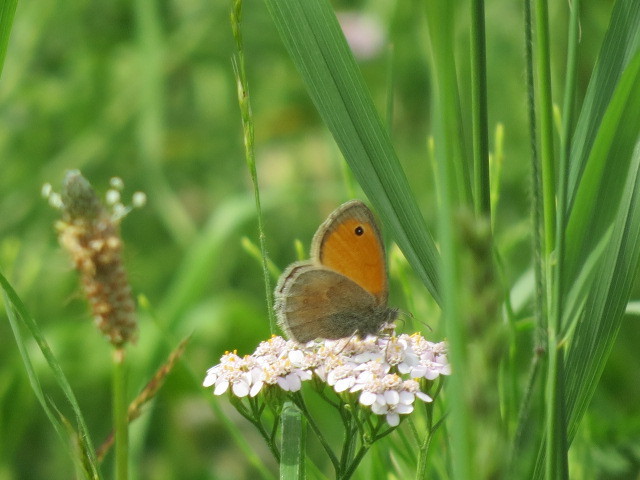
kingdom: Animalia
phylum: Arthropoda
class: Insecta
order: Lepidoptera
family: Nymphalidae
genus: Coenonympha
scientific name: Coenonympha pamphilus
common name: Small heath
